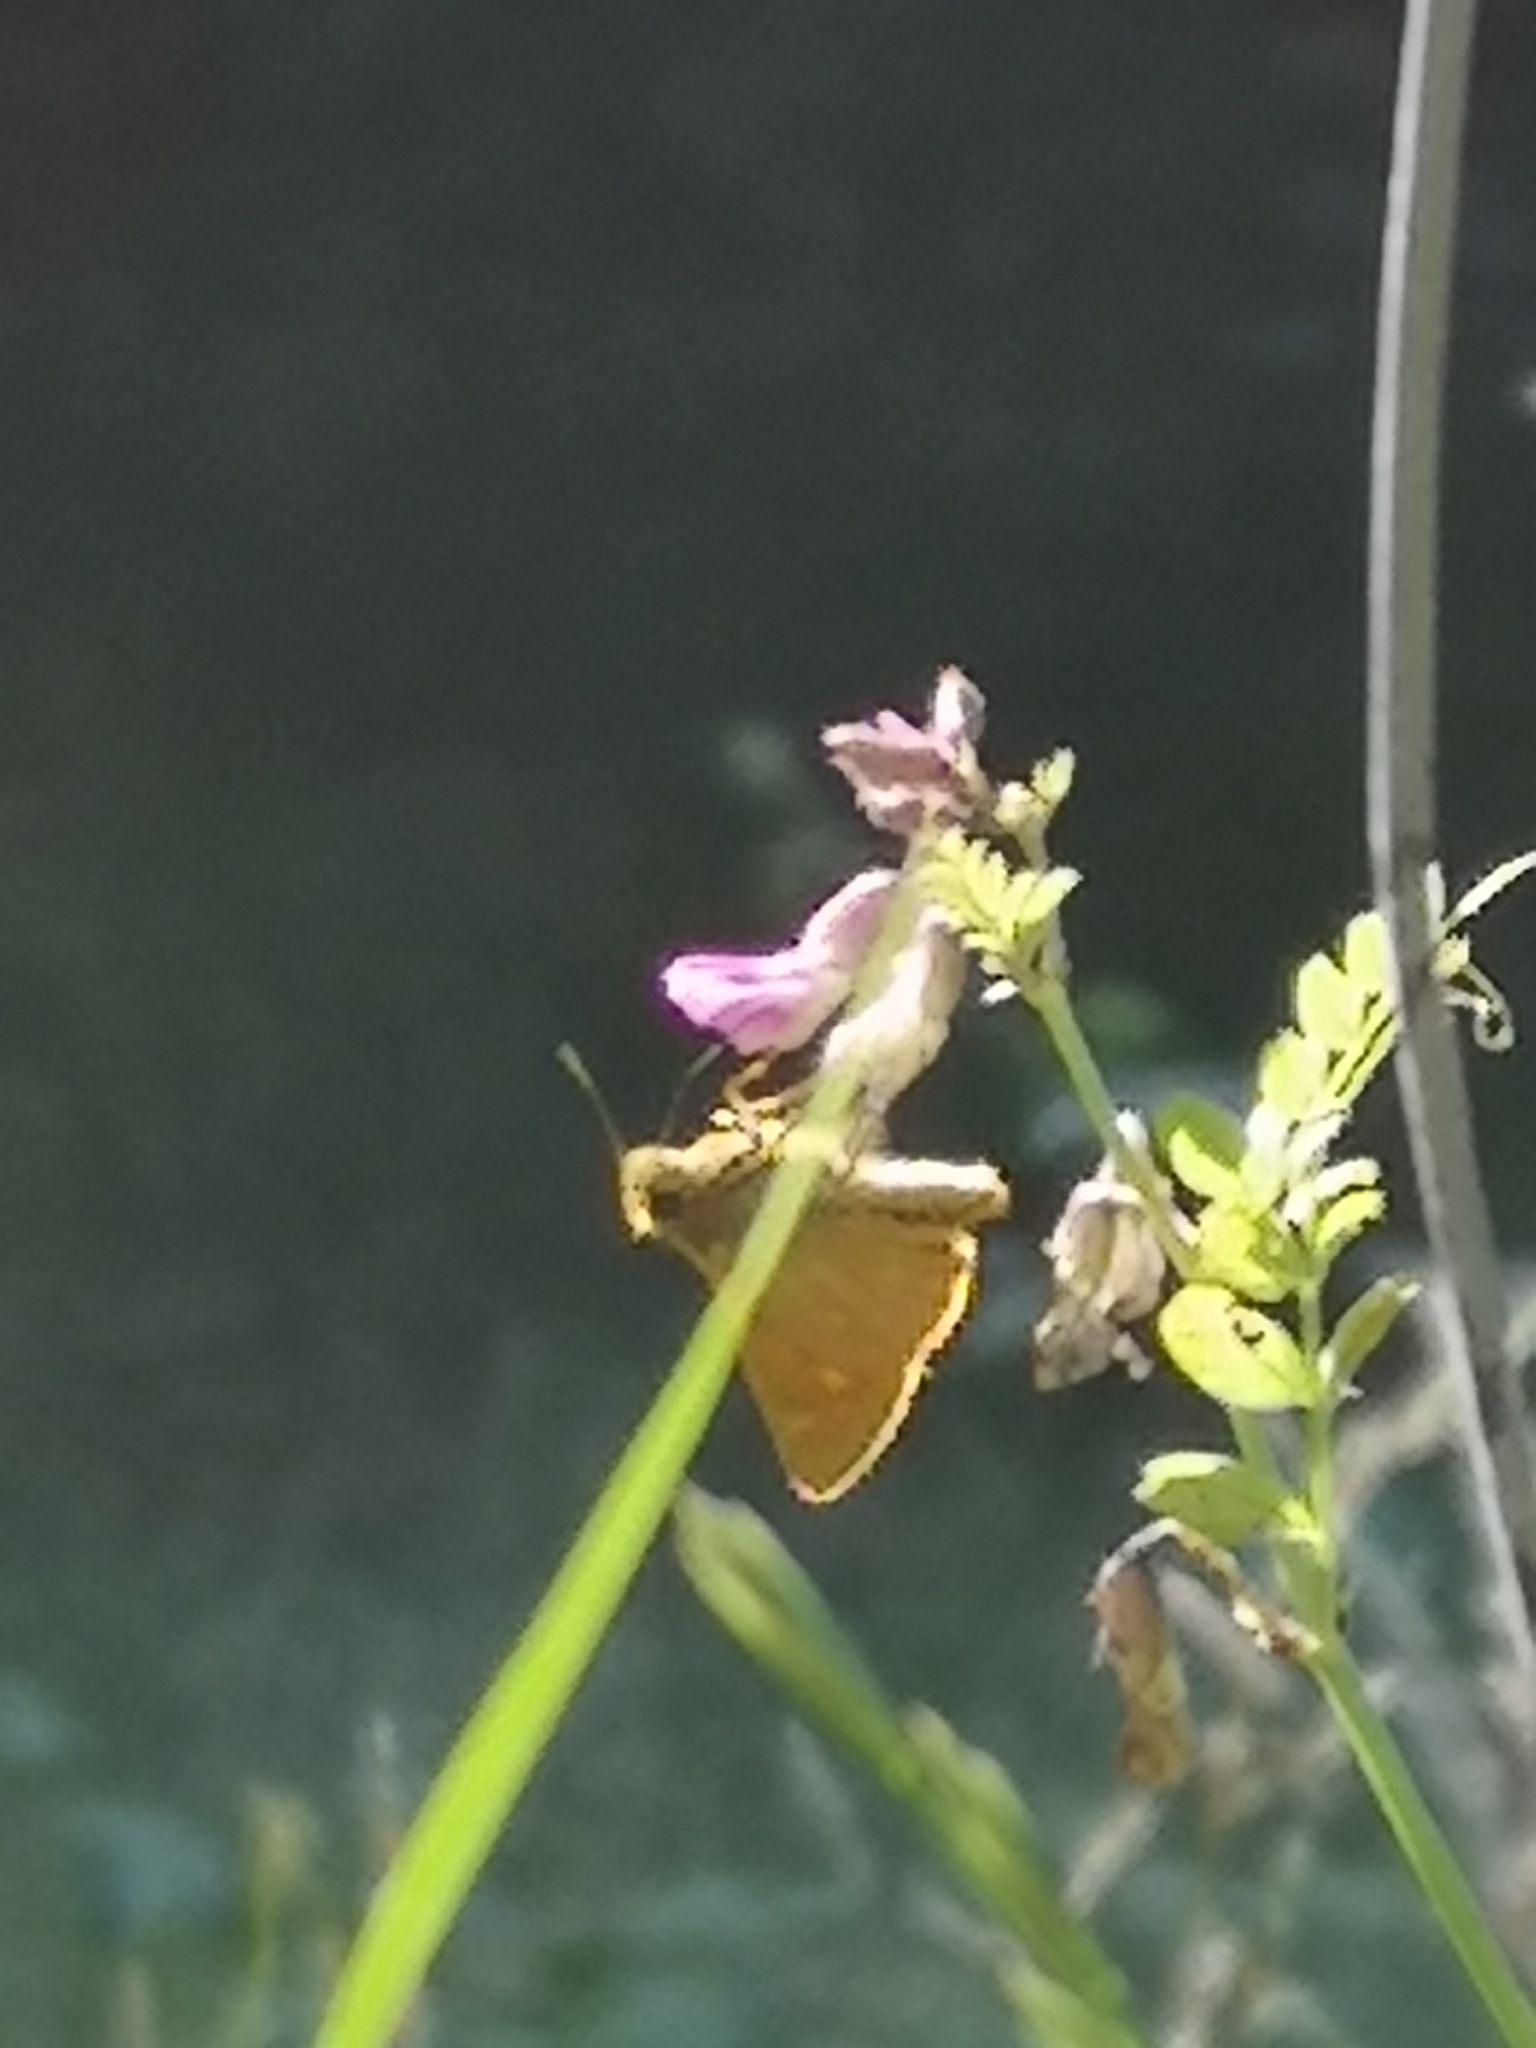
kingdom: Animalia
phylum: Arthropoda
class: Insecta
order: Lepidoptera
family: Hesperiidae
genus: Ochlodes
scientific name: Ochlodes venata
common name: Large skipper
